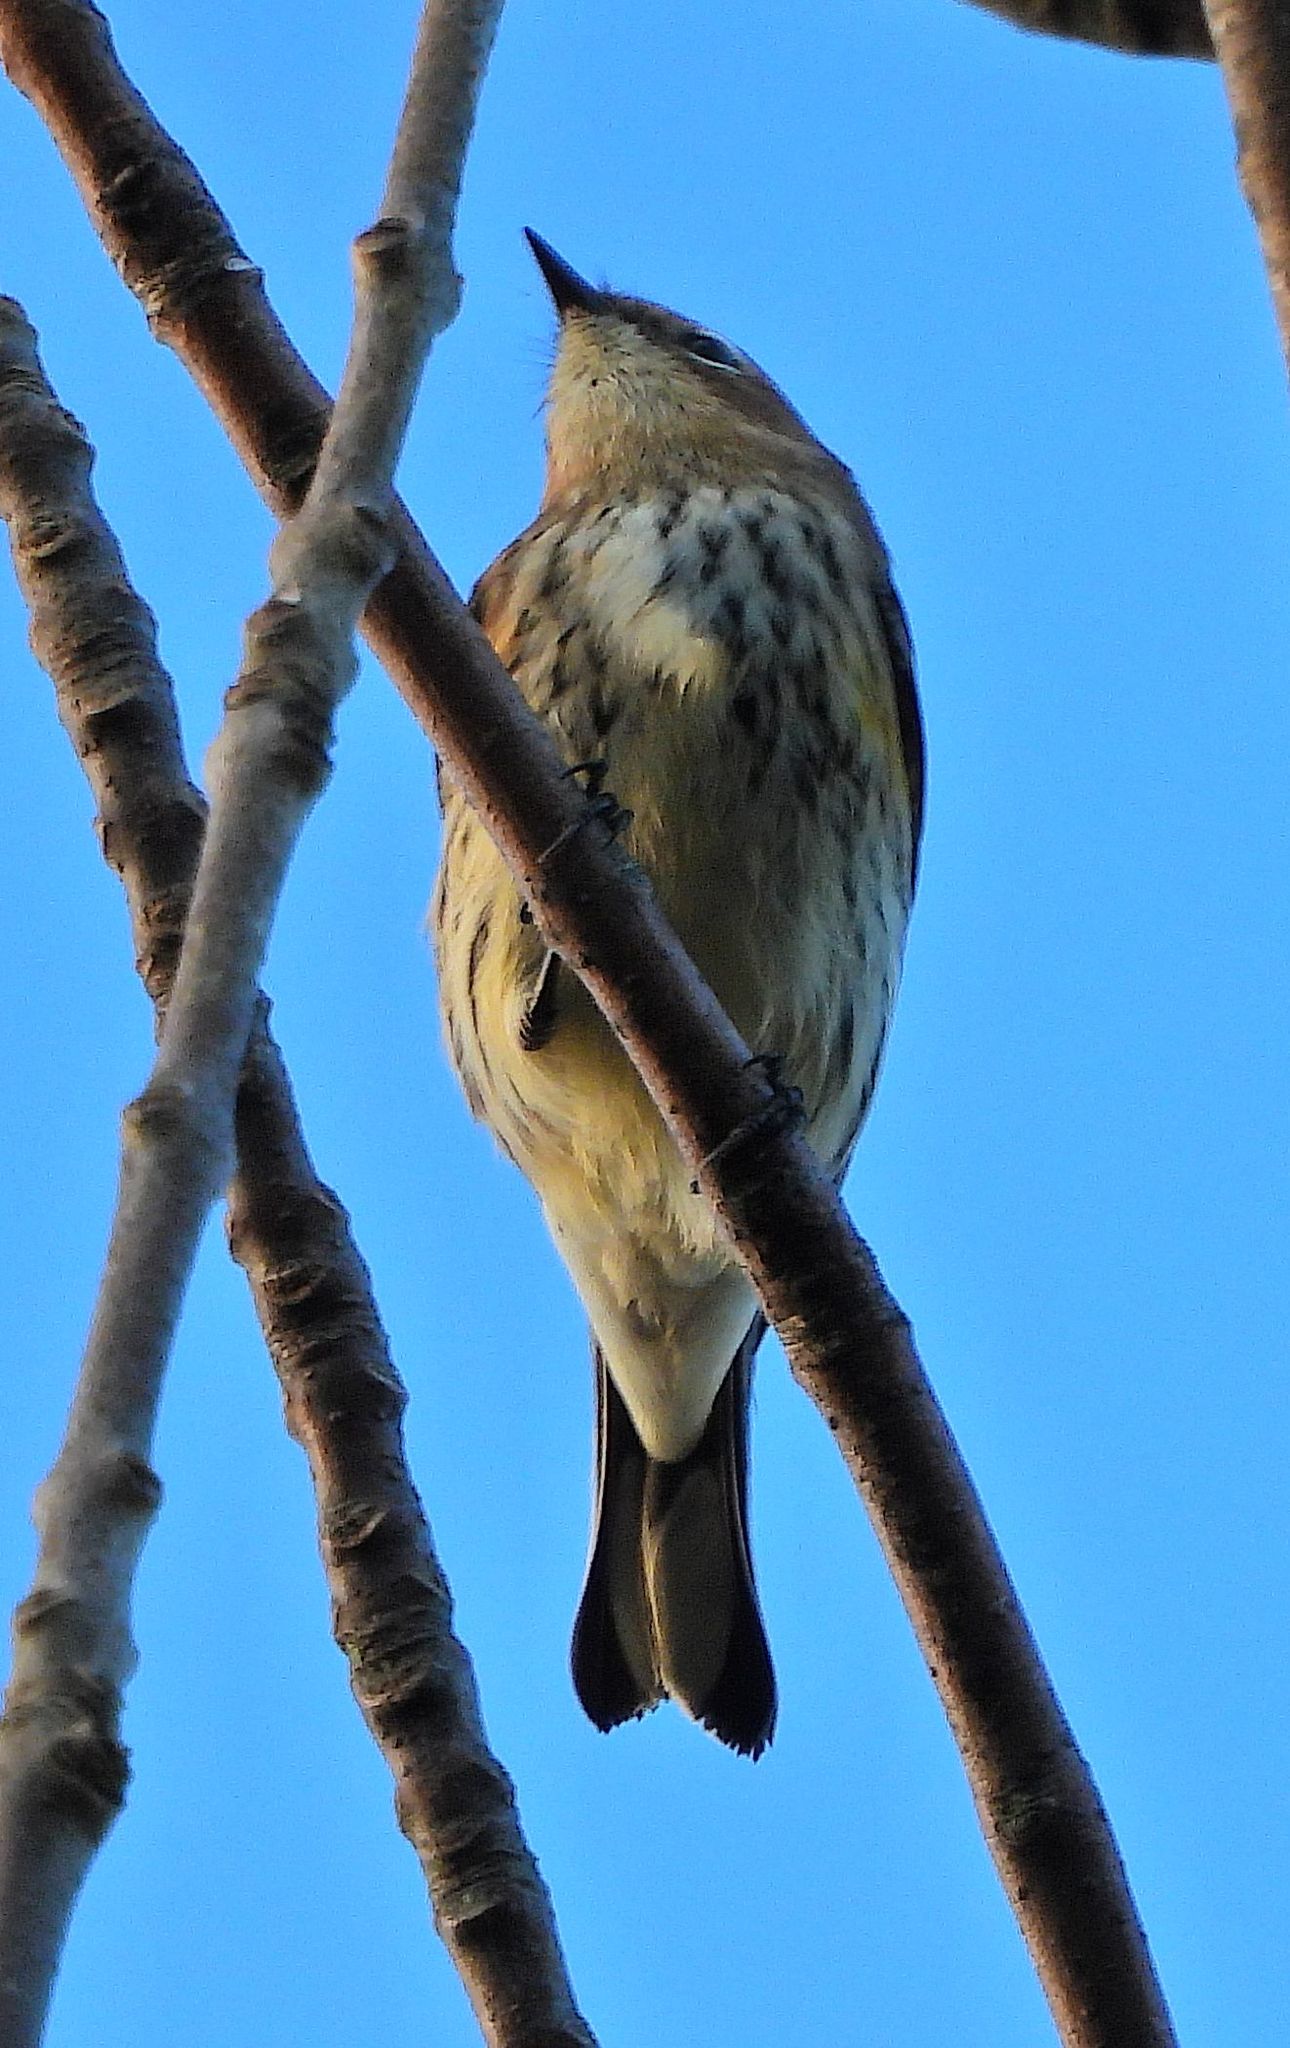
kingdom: Animalia
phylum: Chordata
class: Aves
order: Passeriformes
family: Parulidae
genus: Setophaga
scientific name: Setophaga coronata
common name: Myrtle warbler
